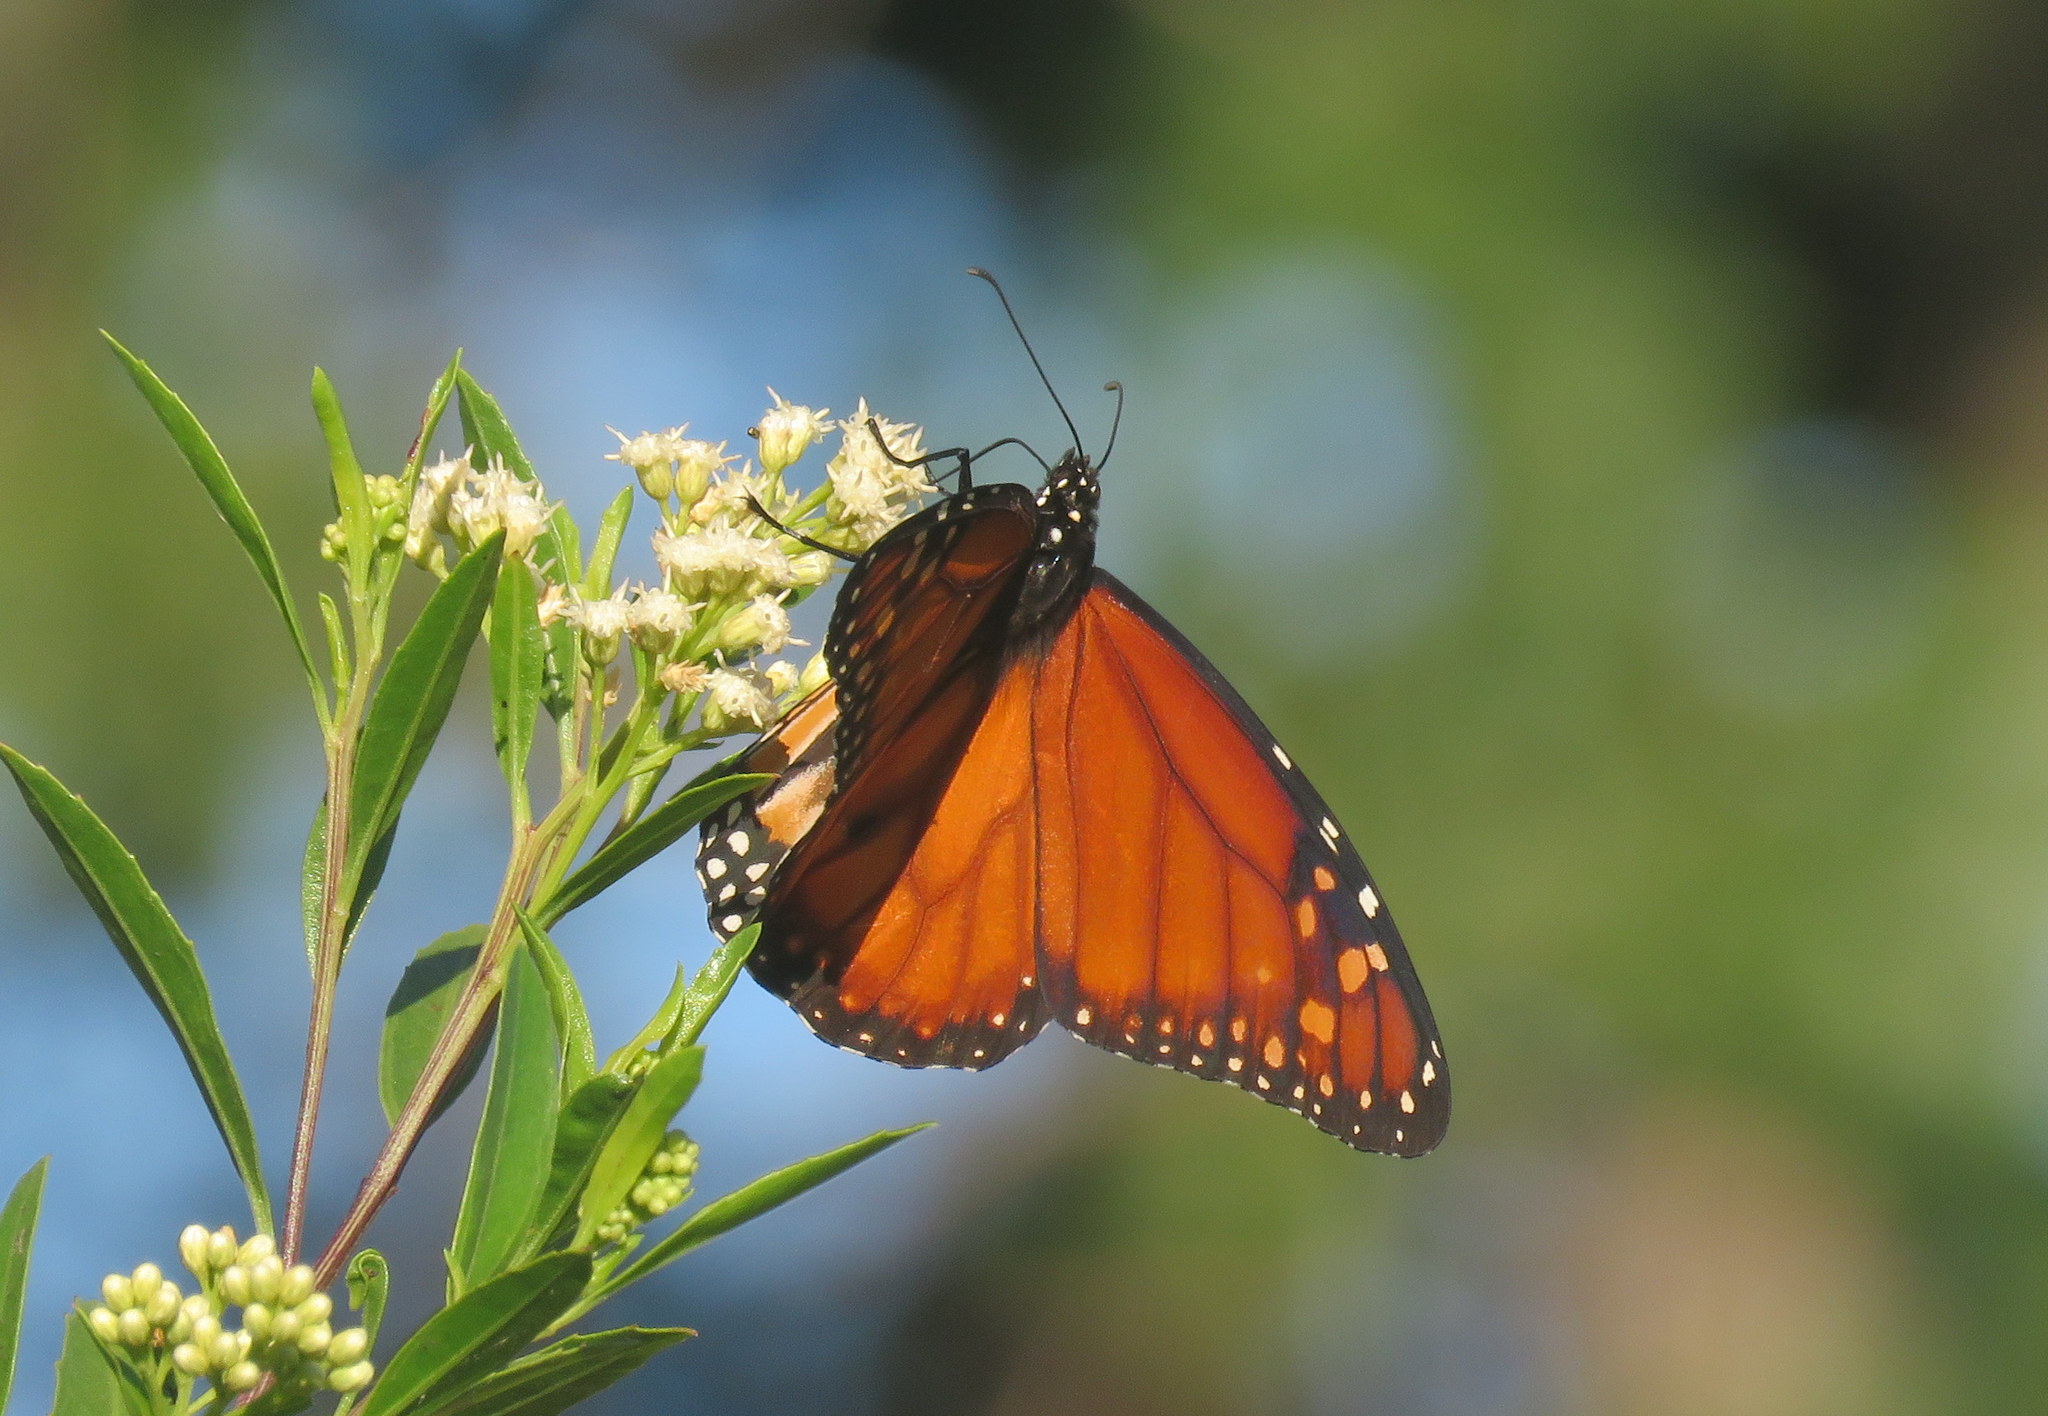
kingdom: Animalia
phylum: Arthropoda
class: Insecta
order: Lepidoptera
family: Nymphalidae
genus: Danaus
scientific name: Danaus erippus
